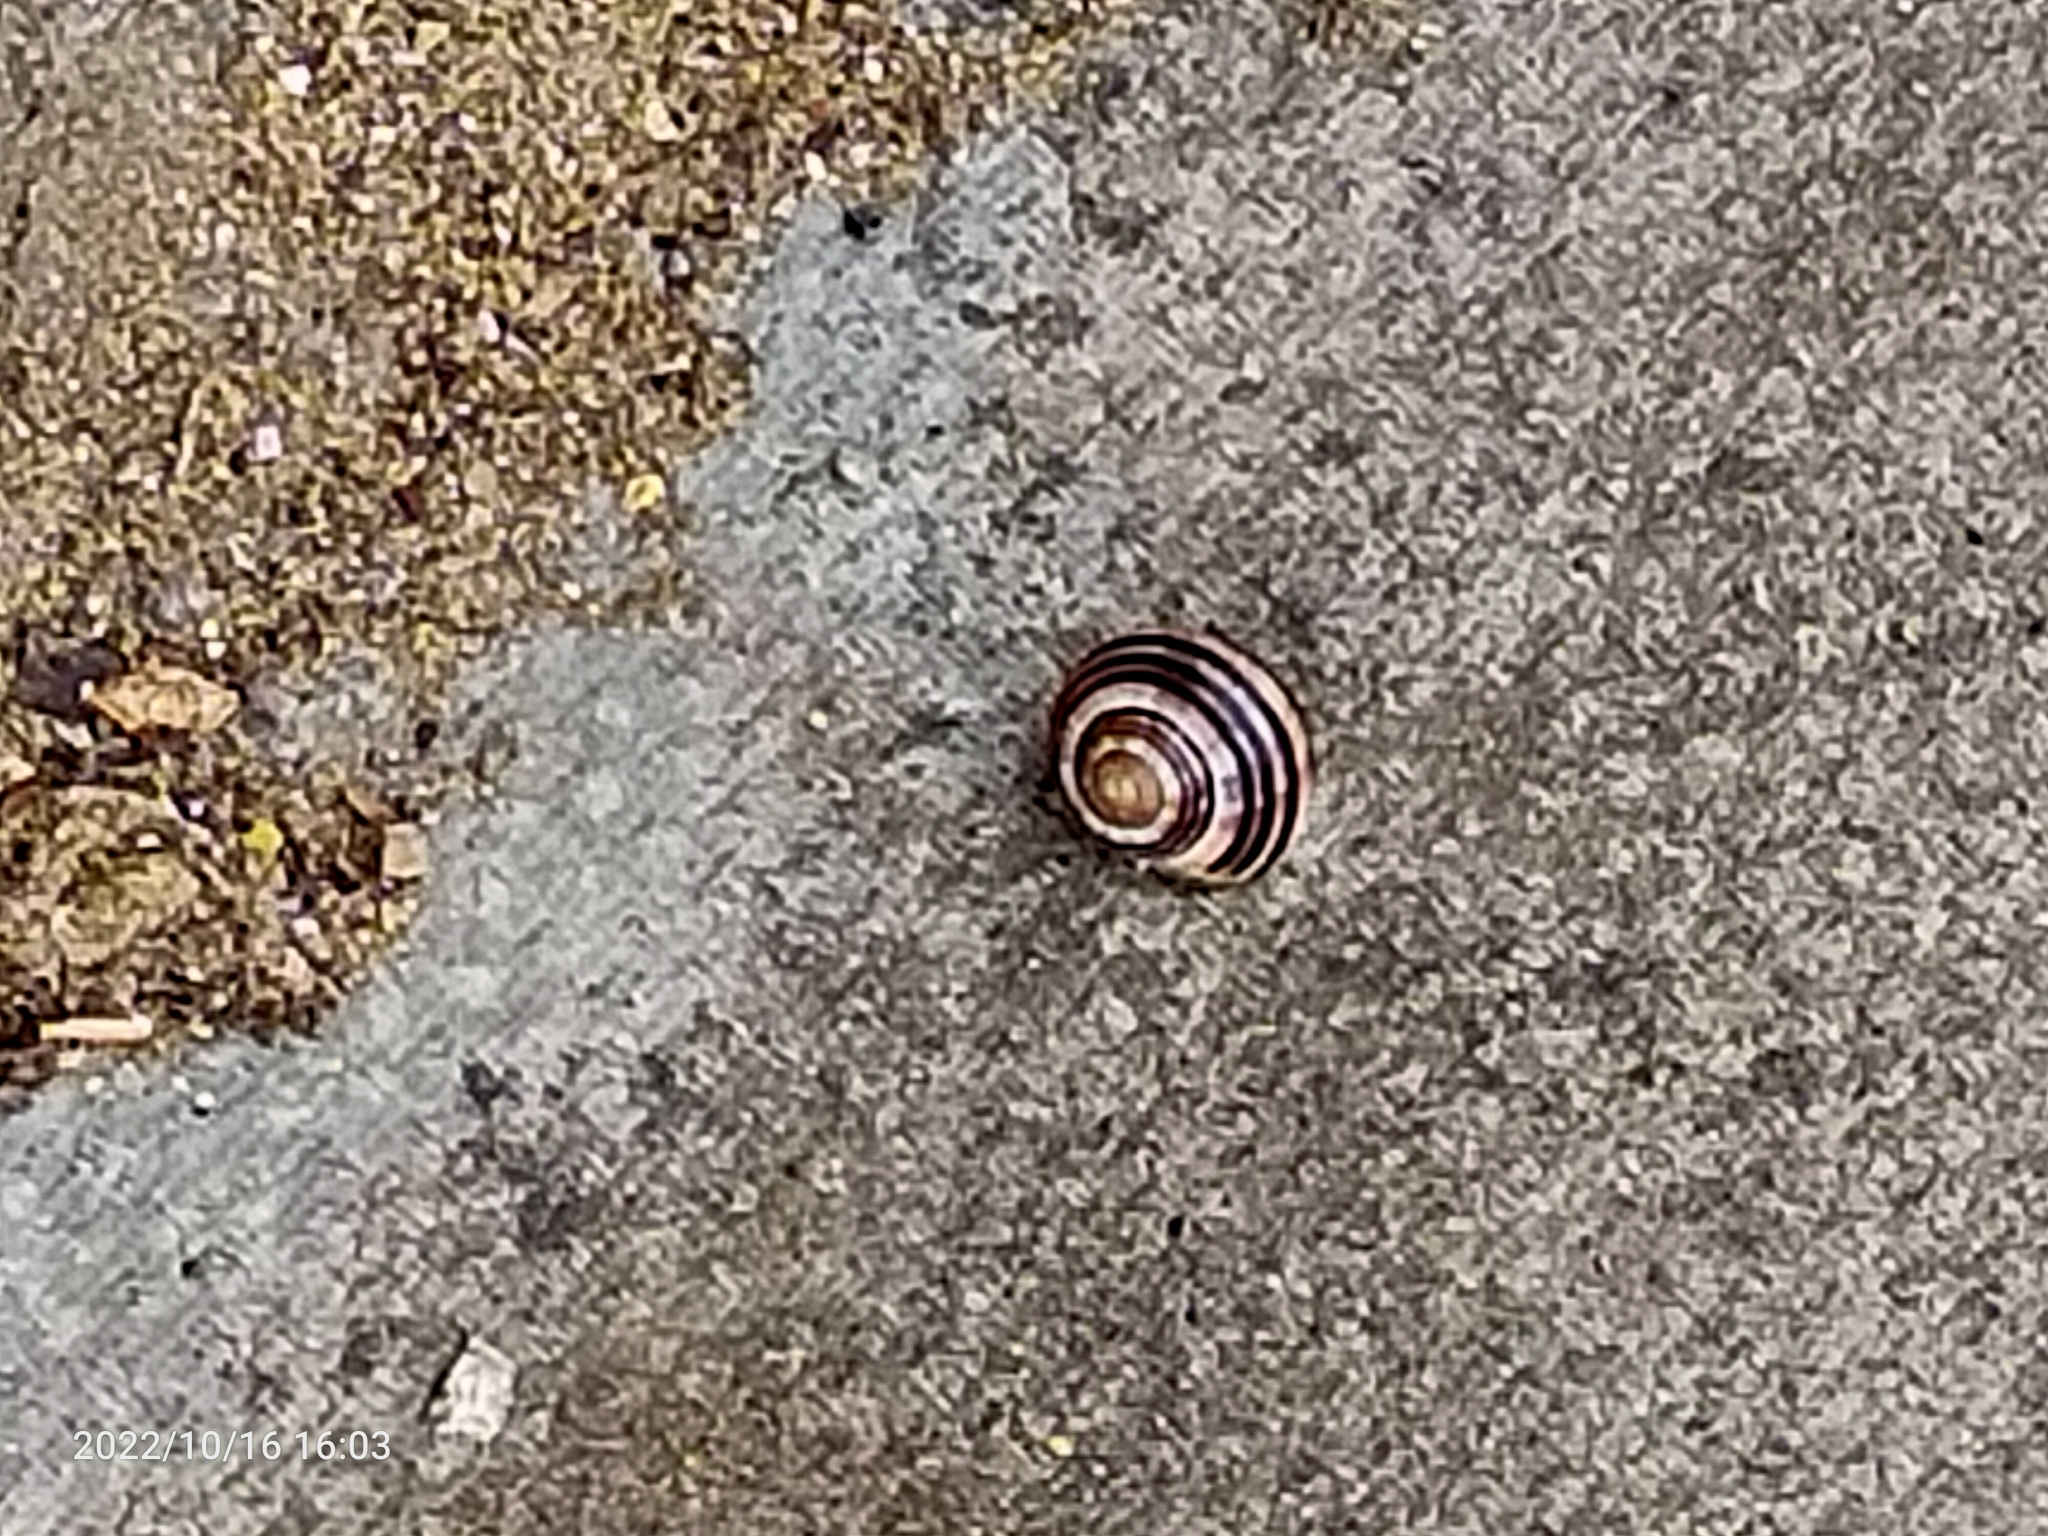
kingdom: Animalia
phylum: Mollusca
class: Gastropoda
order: Stylommatophora
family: Helicidae
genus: Cepaea
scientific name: Cepaea
